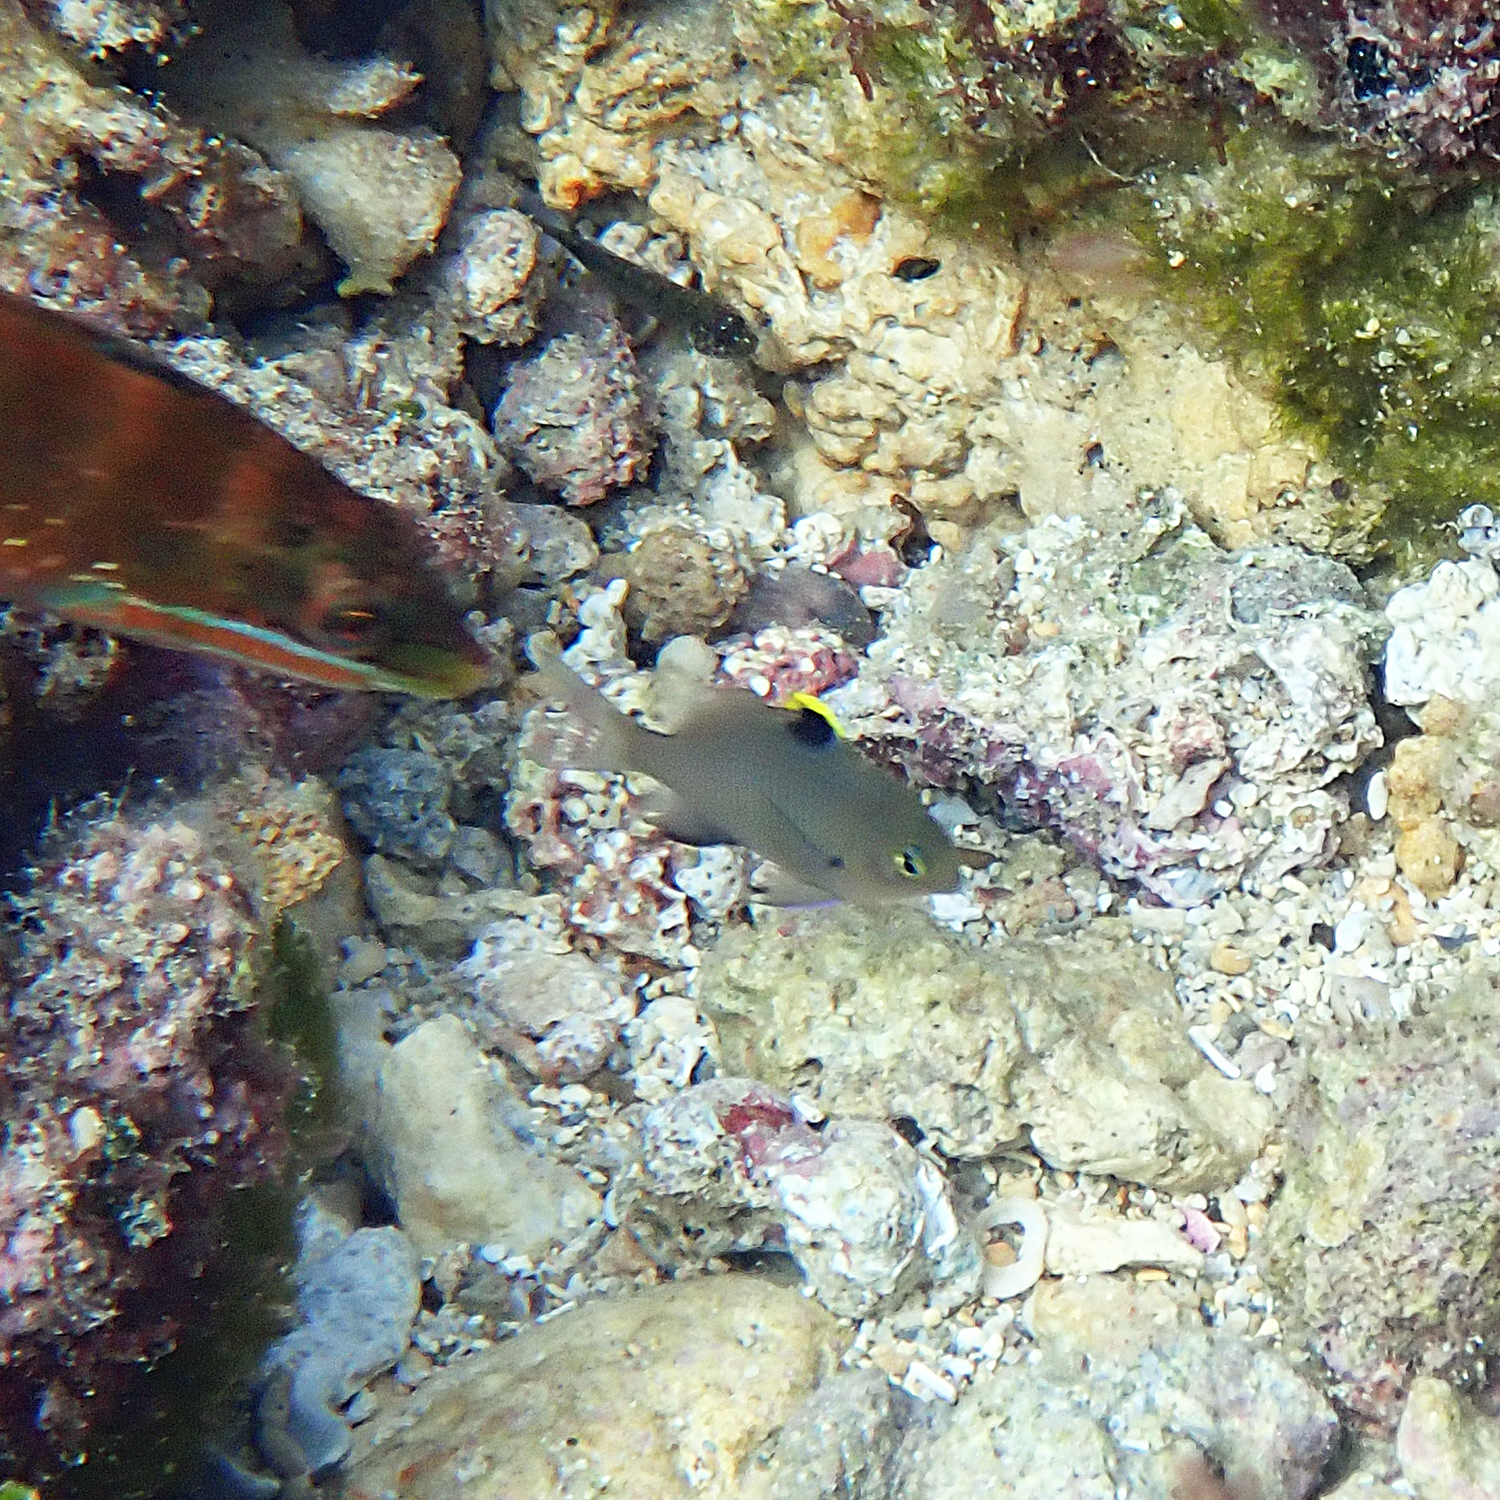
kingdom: Animalia
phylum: Chordata
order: Perciformes
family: Pomacentridae
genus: Stegastes
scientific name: Stegastes fasciolatus
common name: Pacific gregory
